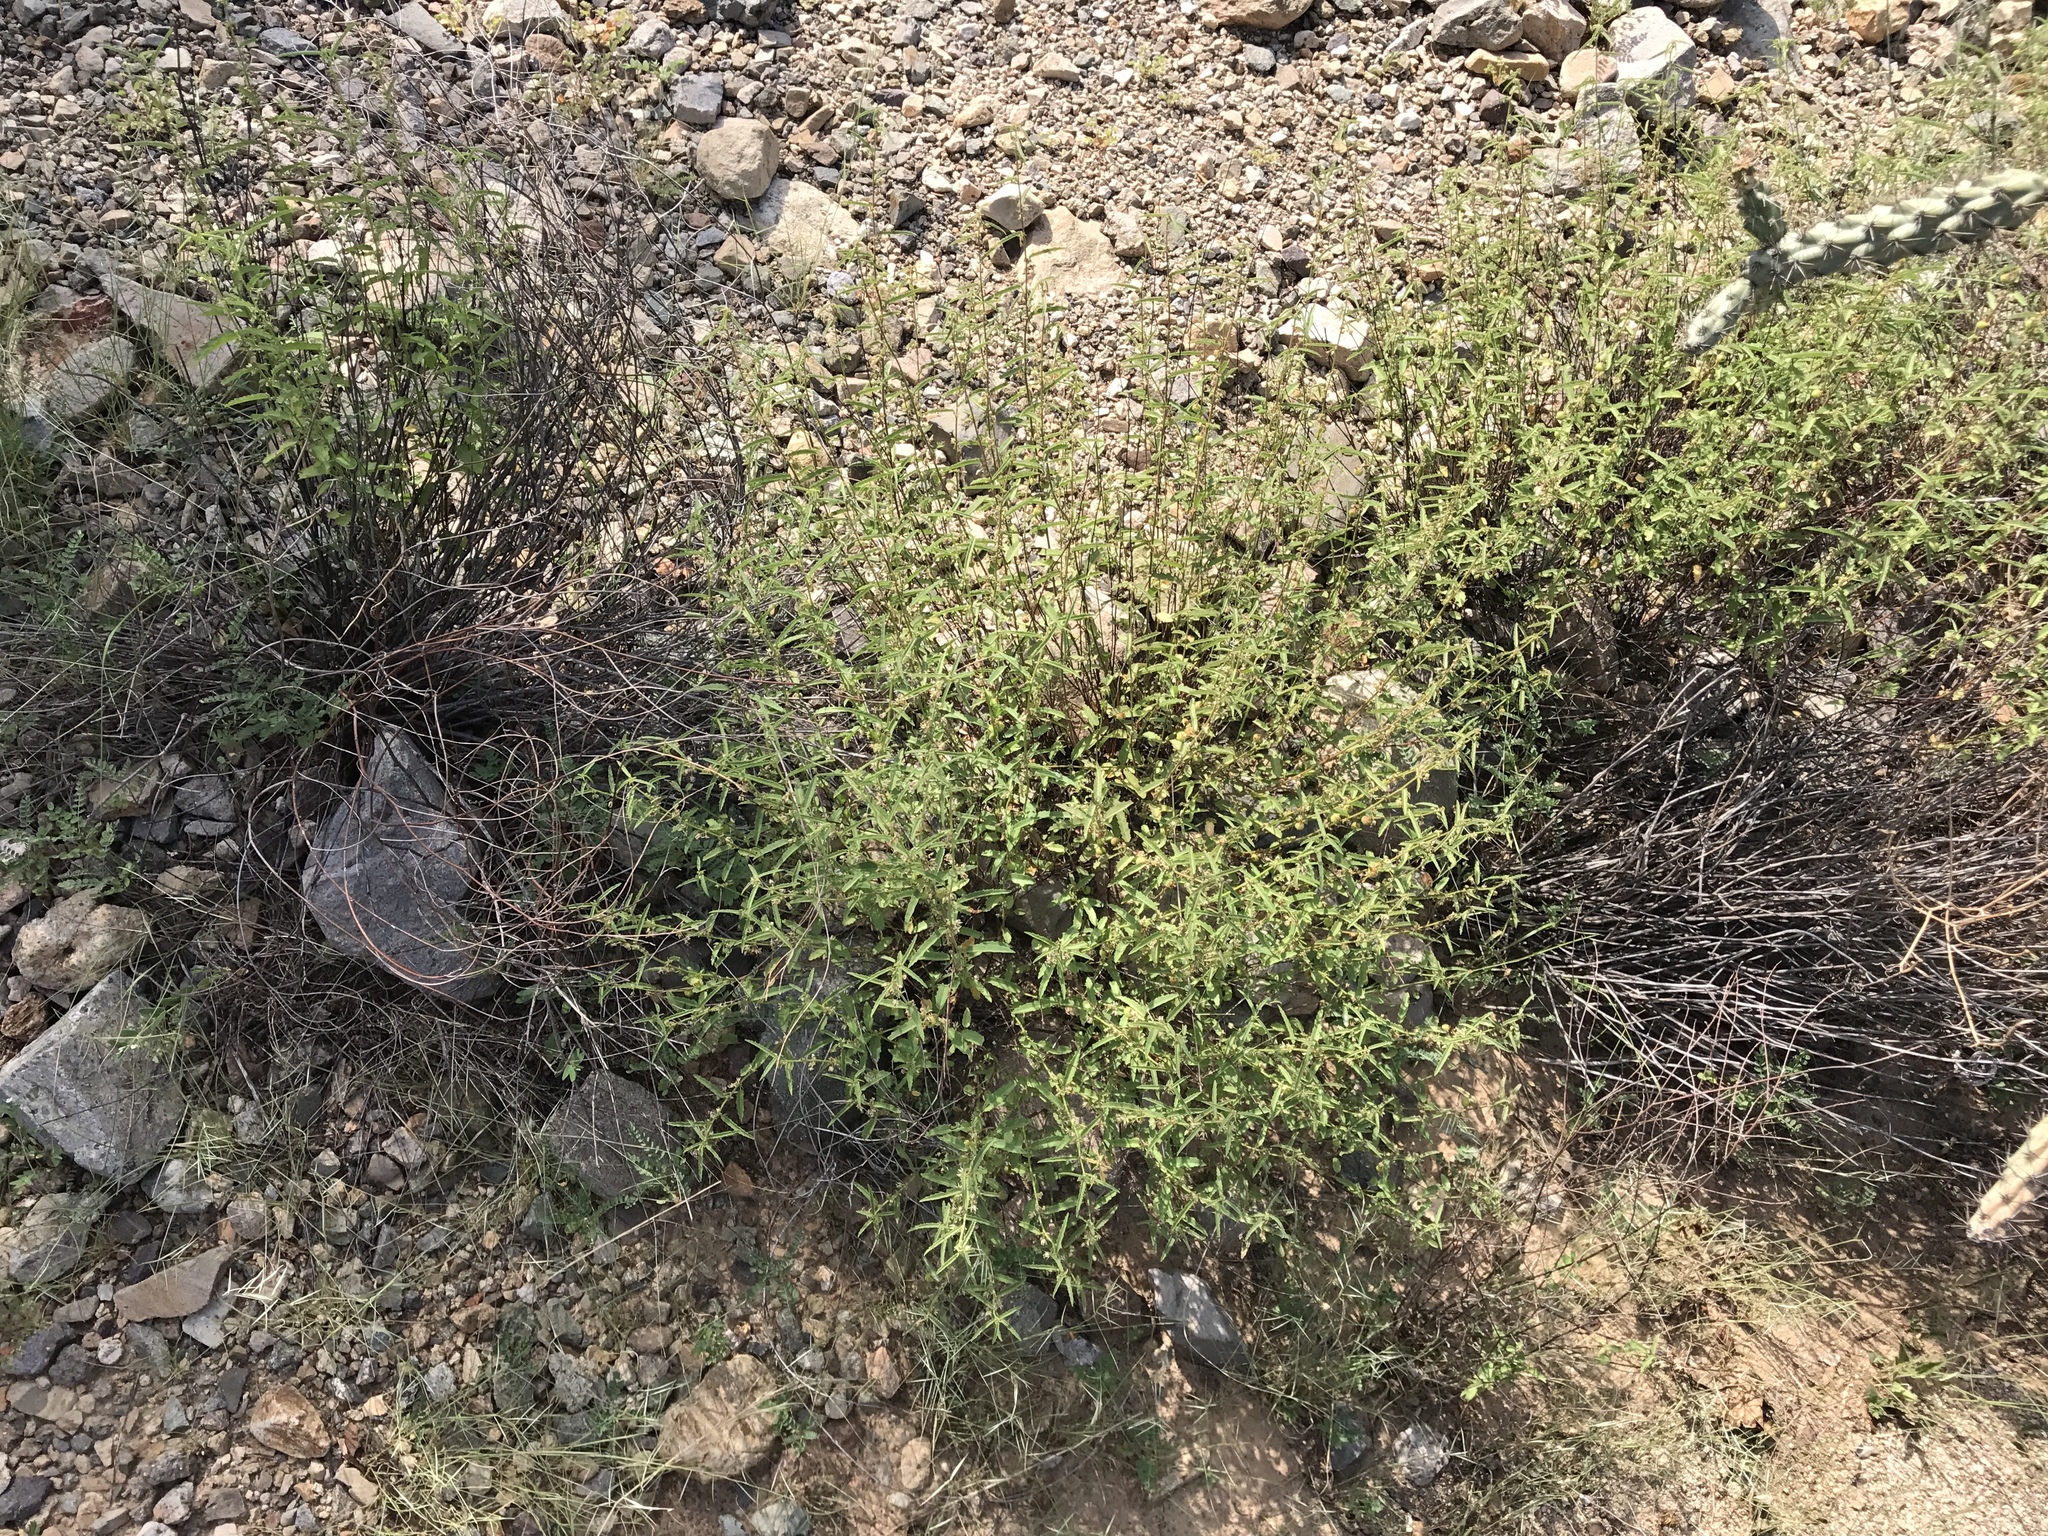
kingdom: Plantae
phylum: Tracheophyta
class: Magnoliopsida
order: Malvales
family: Malvaceae
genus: Ayenia
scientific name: Ayenia filiformis
